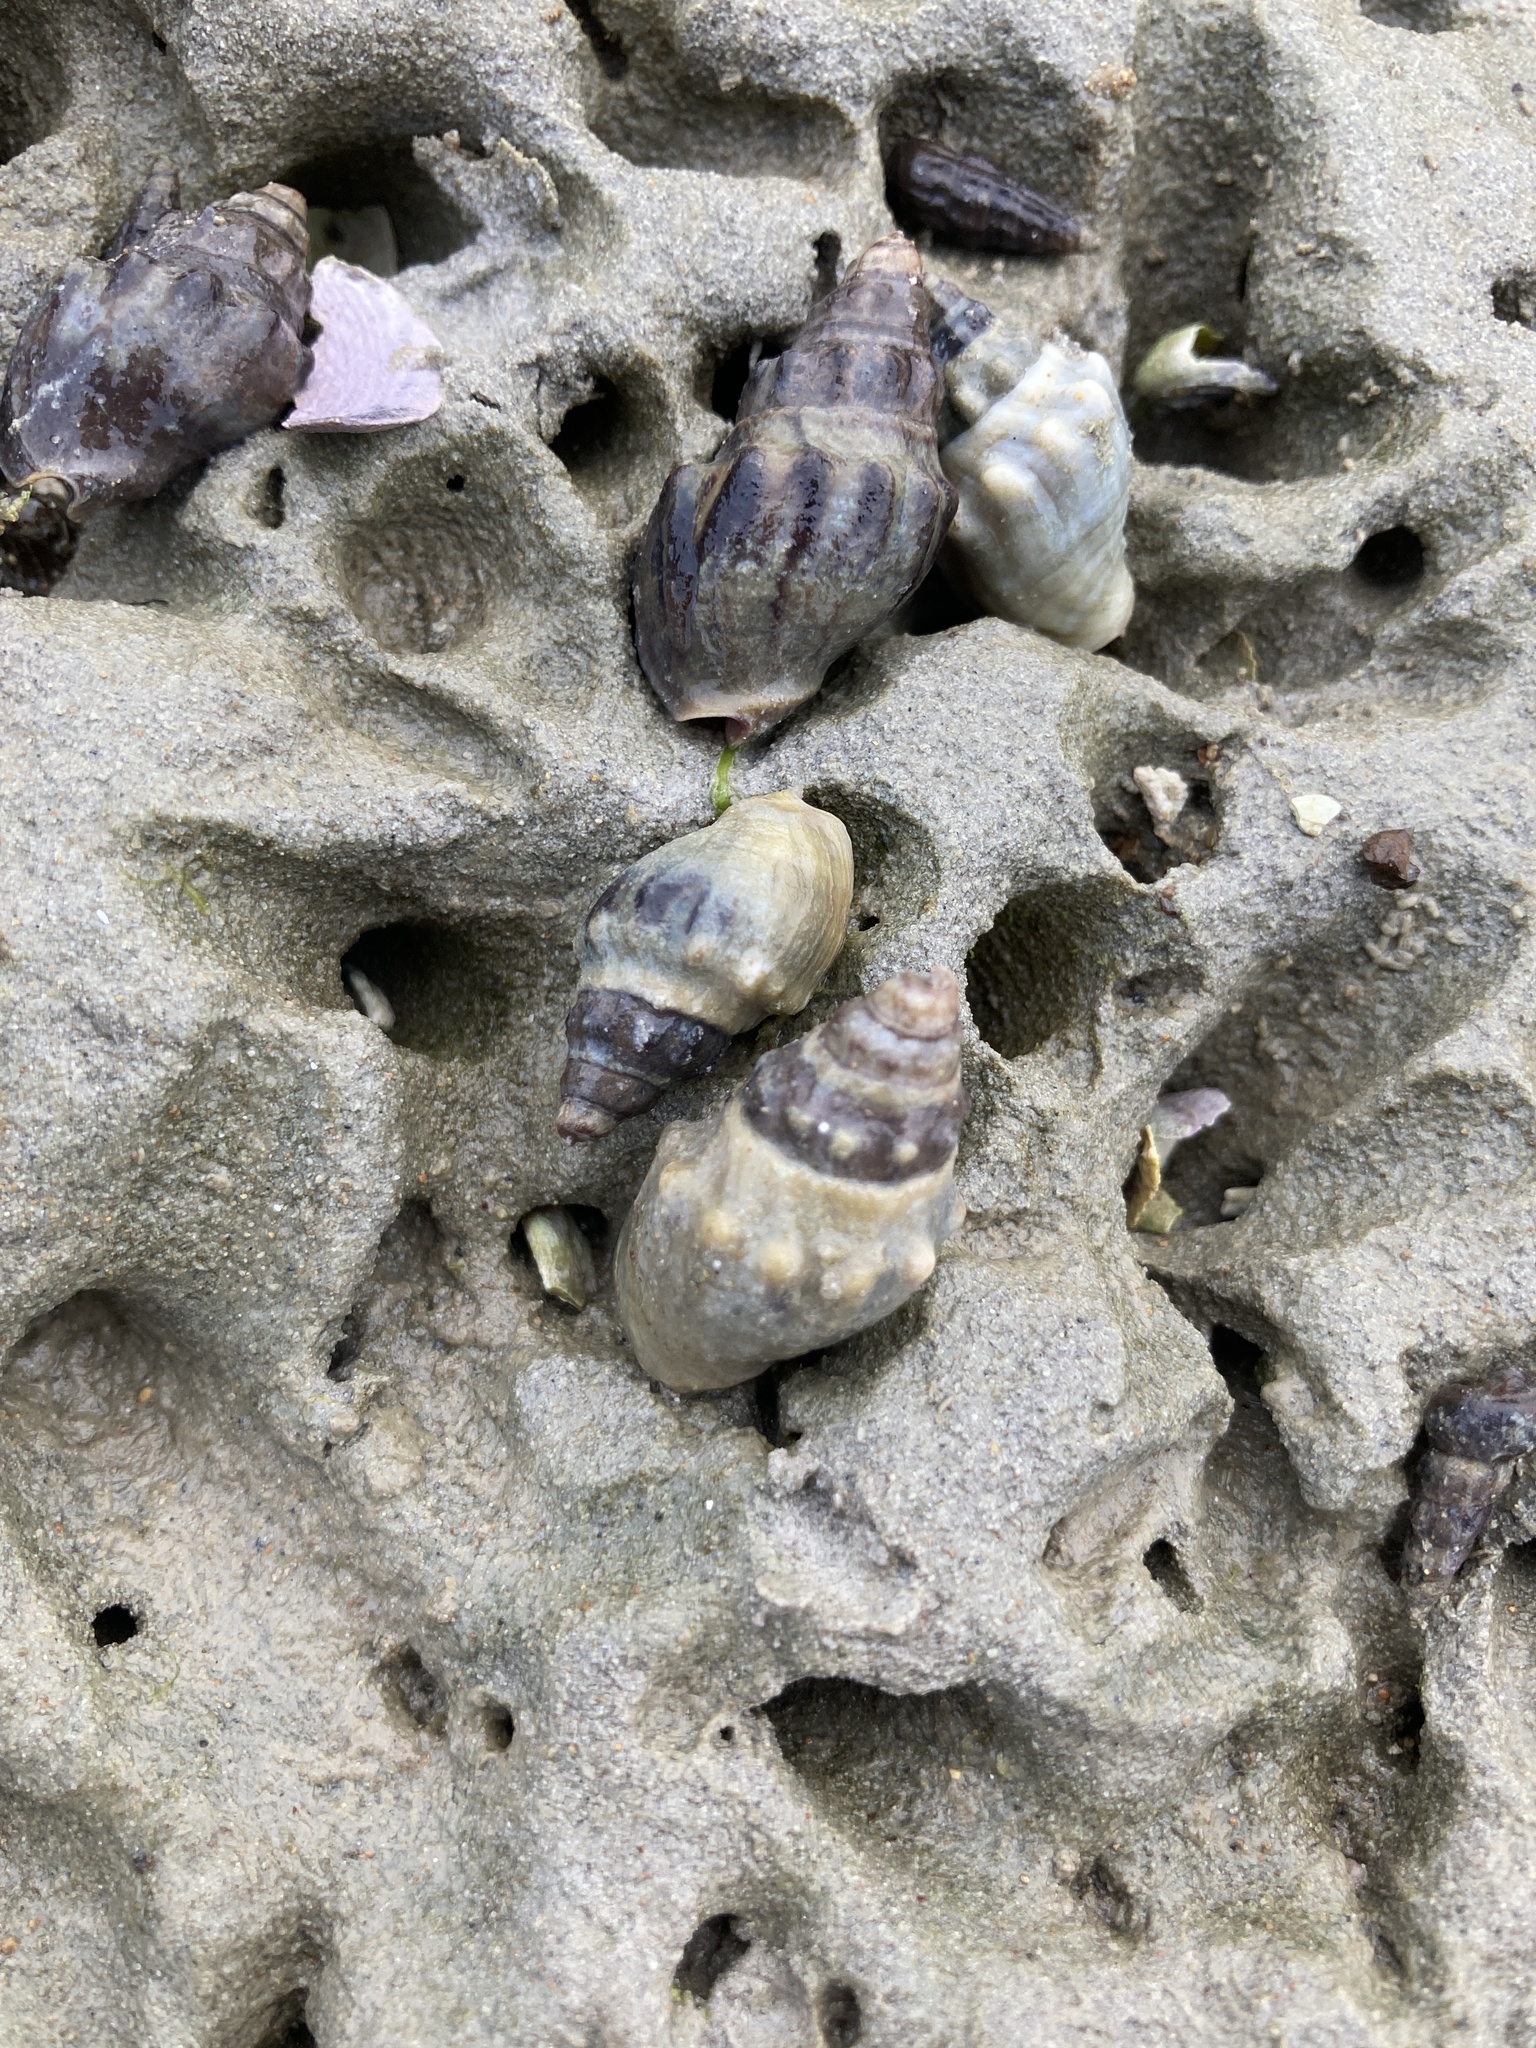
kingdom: Animalia
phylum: Mollusca
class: Gastropoda
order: Neogastropoda
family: Cominellidae
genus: Cominella
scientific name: Cominella glandiformis
